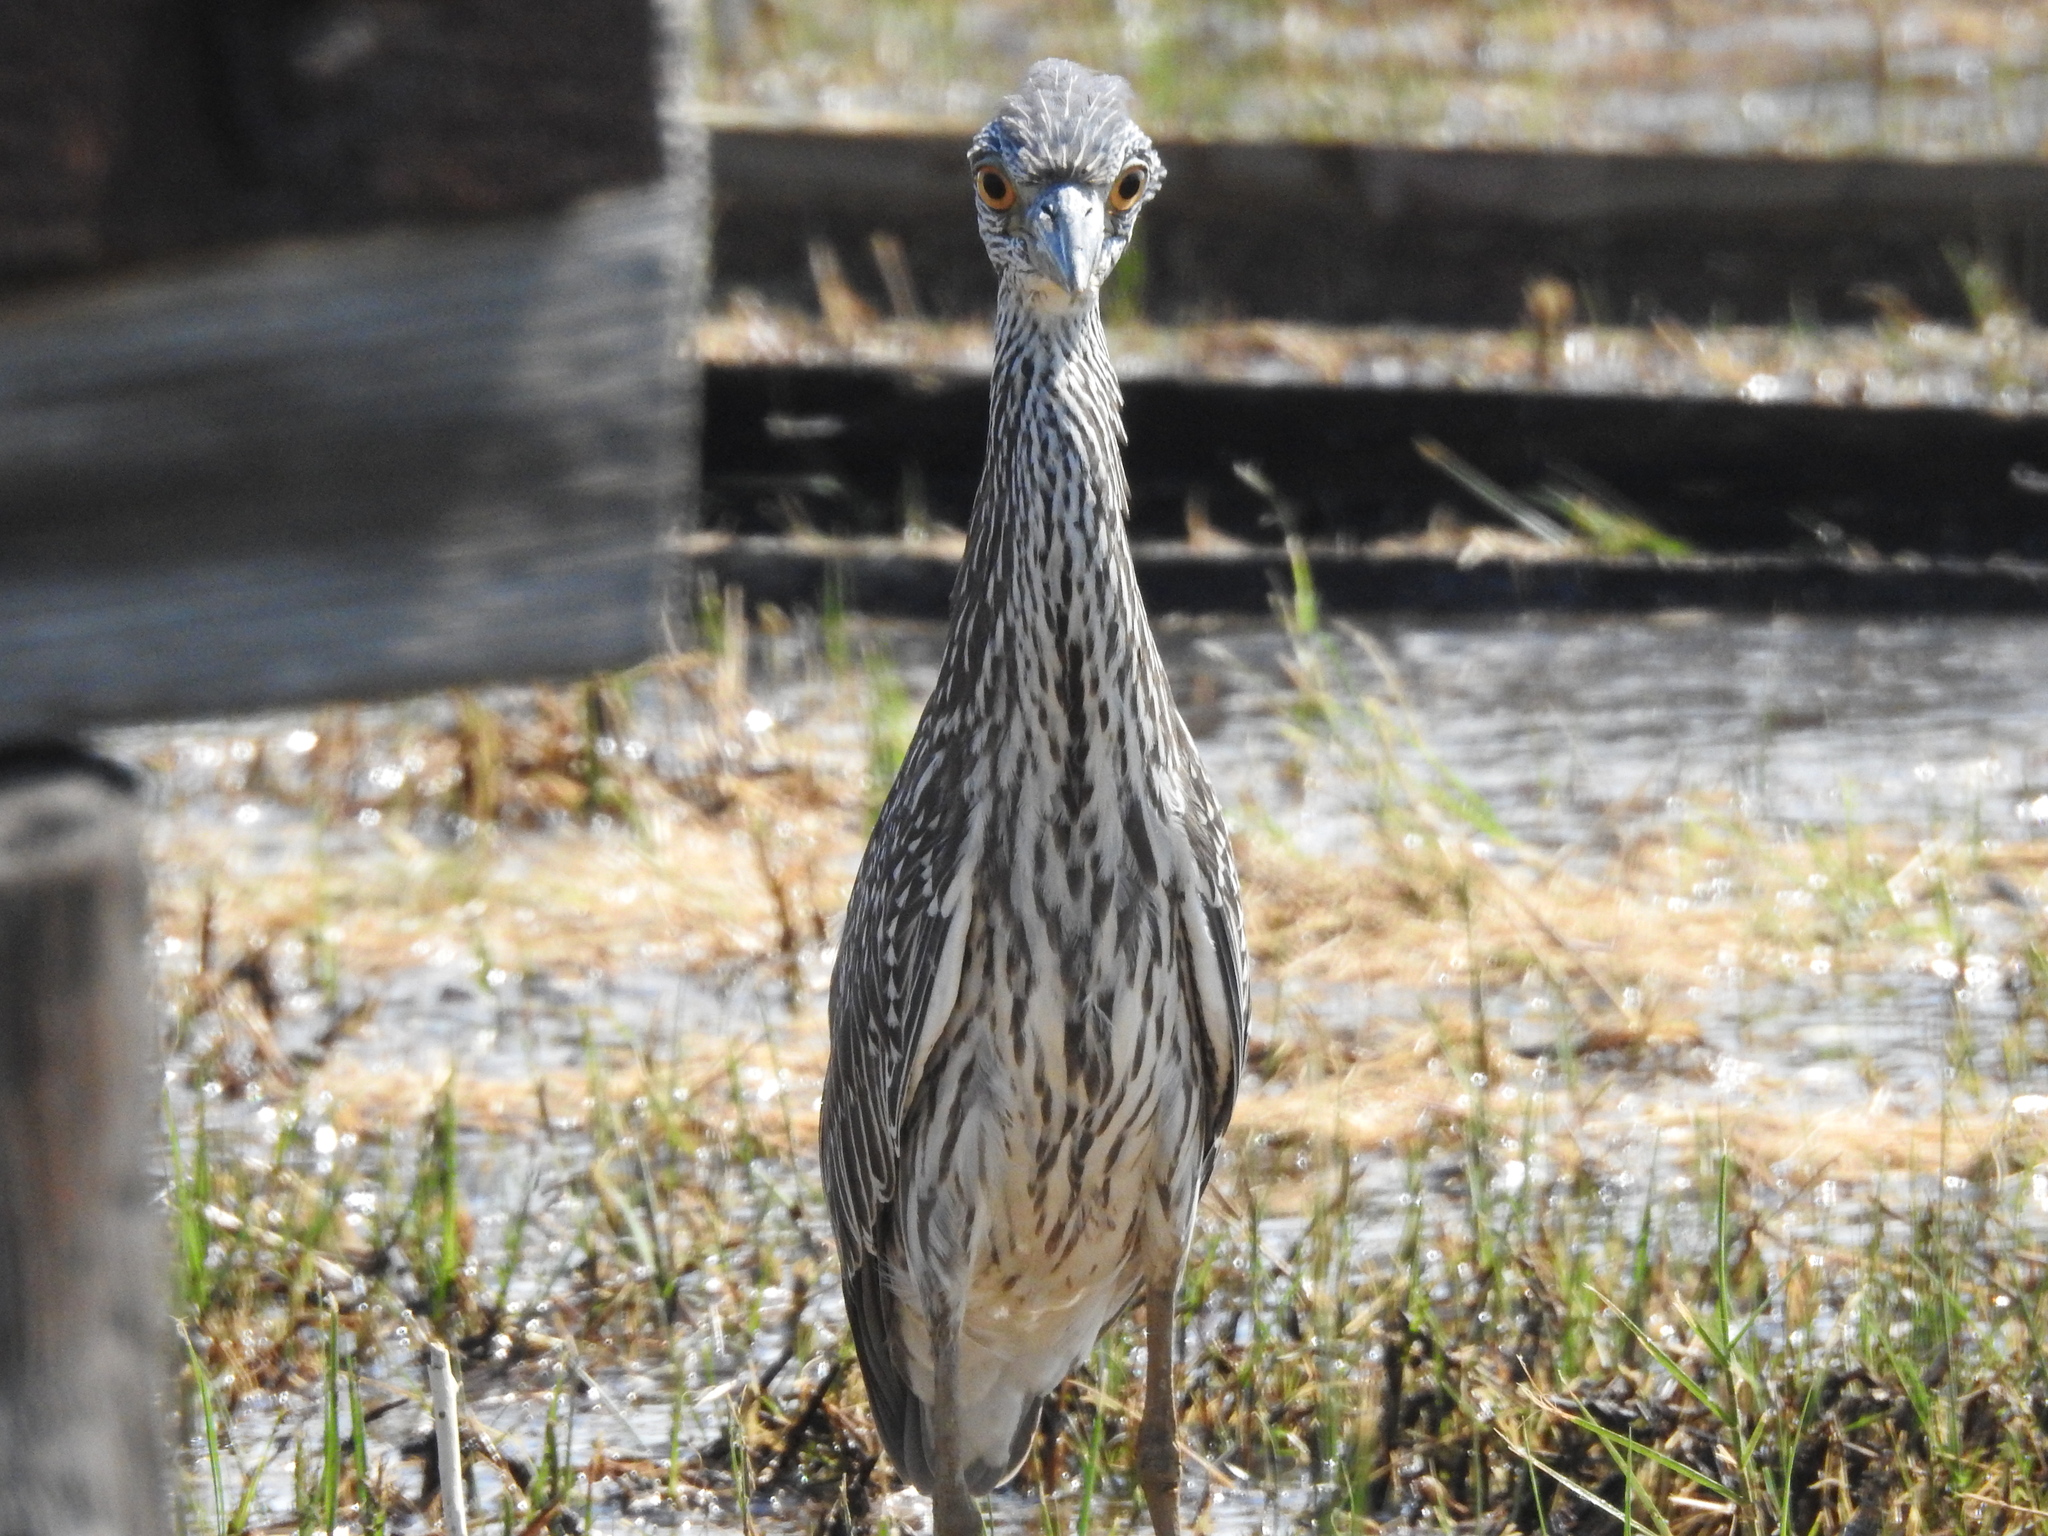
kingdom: Animalia
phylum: Chordata
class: Aves
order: Pelecaniformes
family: Ardeidae
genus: Nyctanassa
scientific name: Nyctanassa violacea
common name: Yellow-crowned night heron
